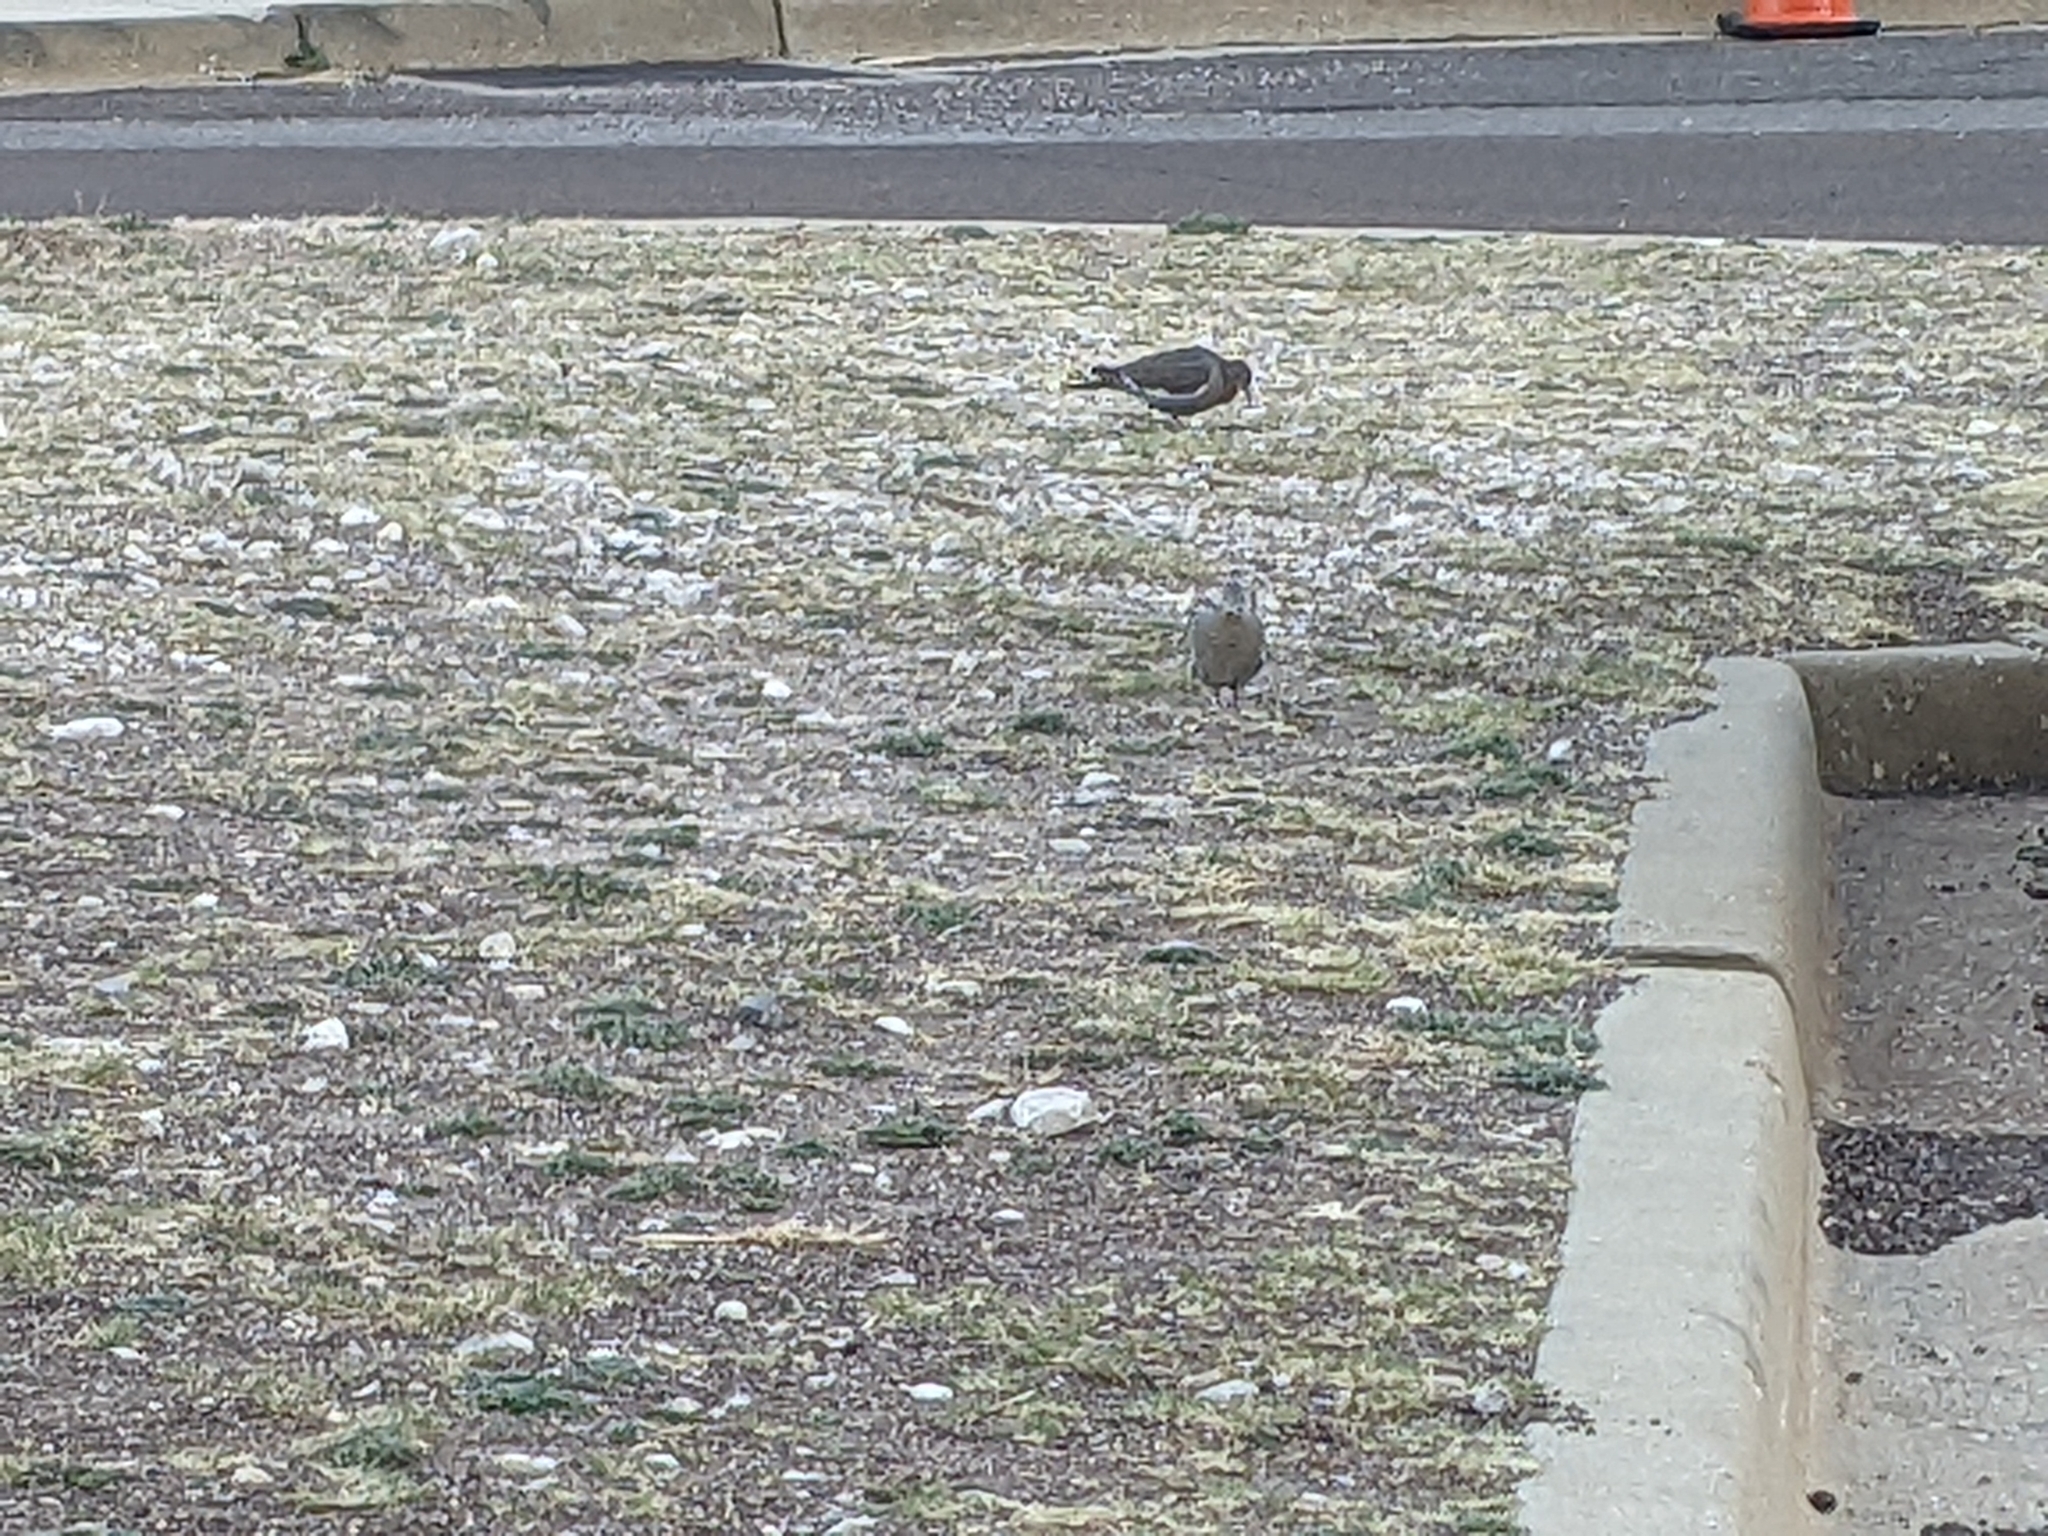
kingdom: Animalia
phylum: Chordata
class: Aves
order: Columbiformes
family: Columbidae
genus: Zenaida
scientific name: Zenaida asiatica
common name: White-winged dove
